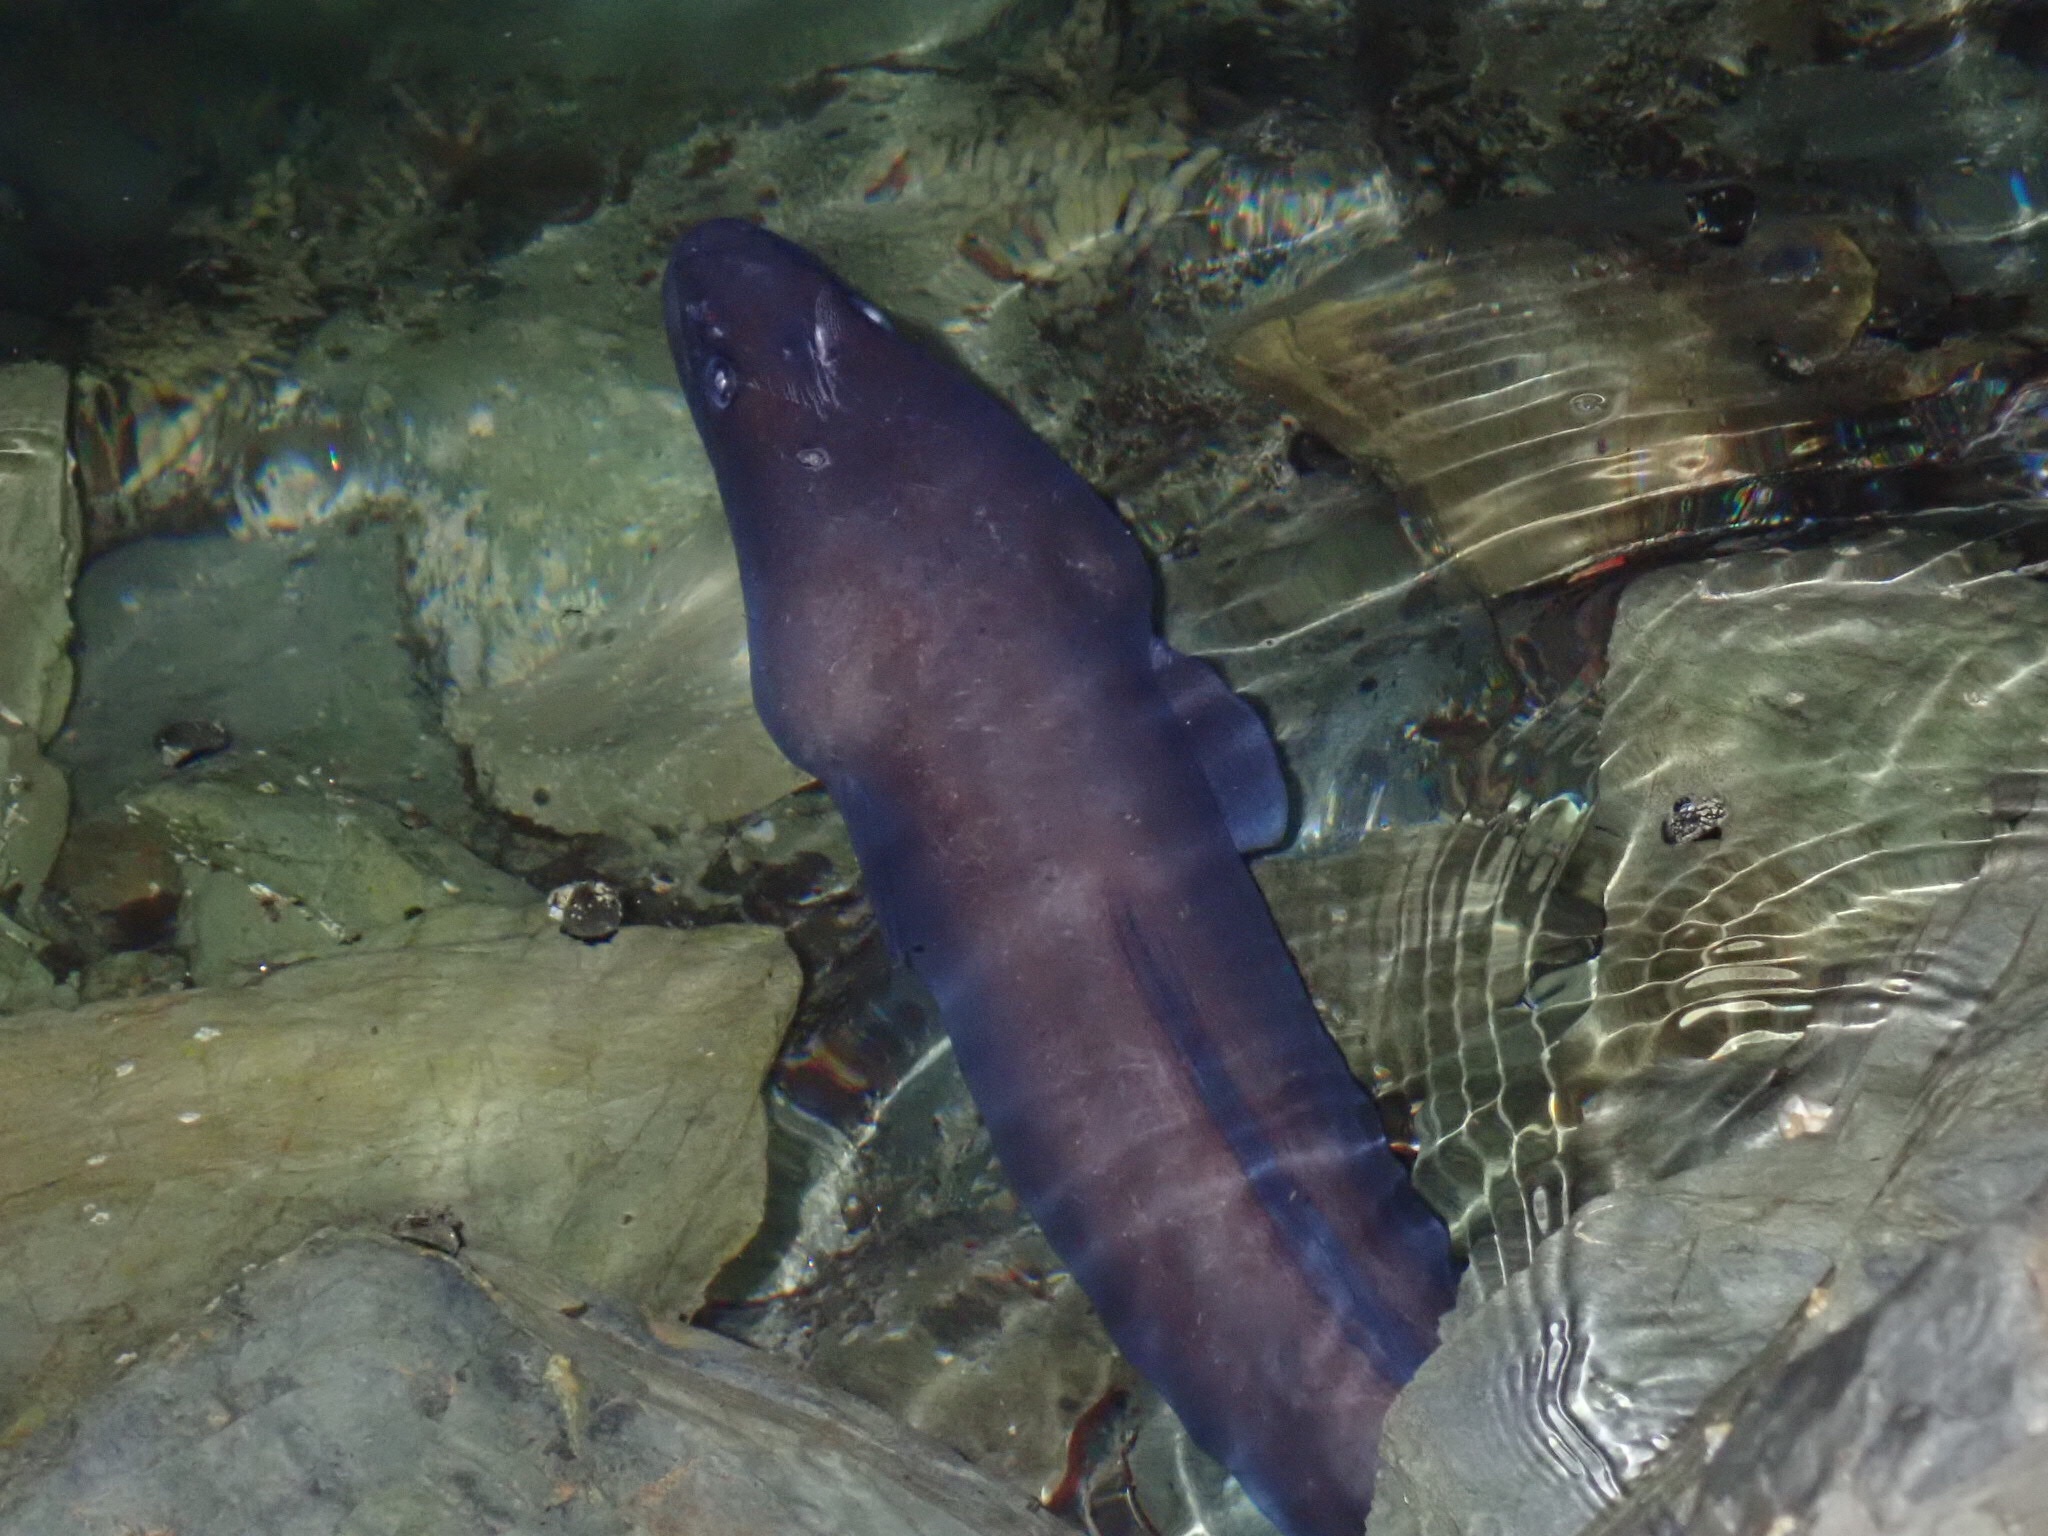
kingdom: Animalia
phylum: Chordata
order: Anguilliformes
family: Congridae
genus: Conger
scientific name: Conger verreauxi
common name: Conger eel
